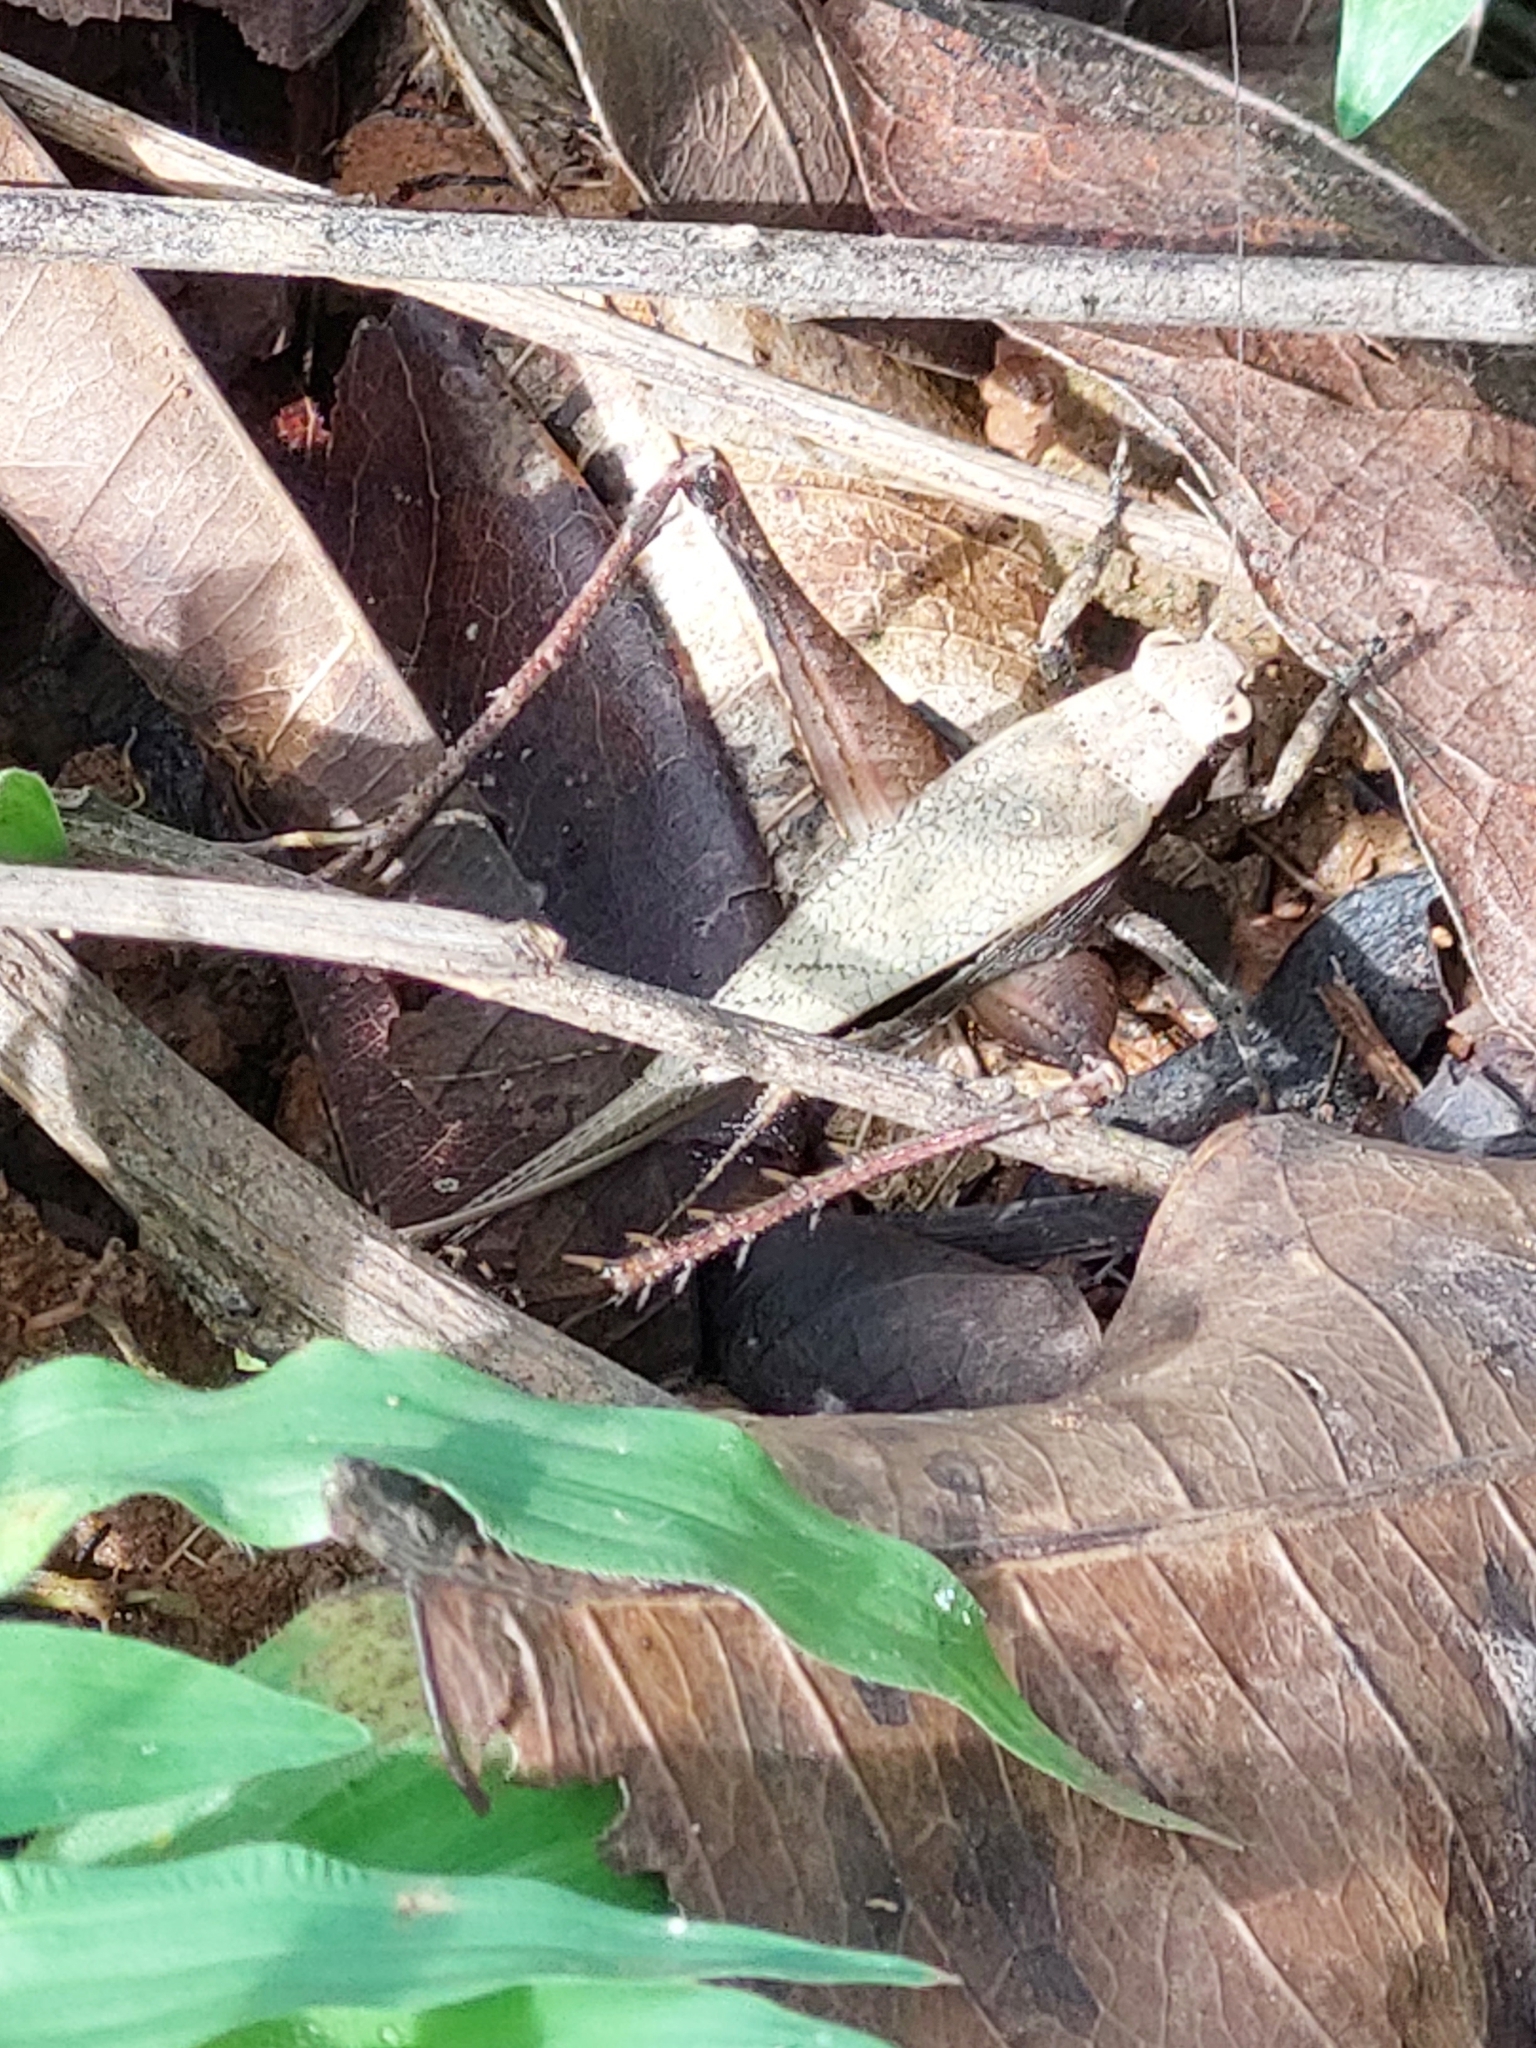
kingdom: Animalia
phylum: Arthropoda
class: Insecta
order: Orthoptera
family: Gryllidae
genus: Eneoptera
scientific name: Eneoptera surinamensis
